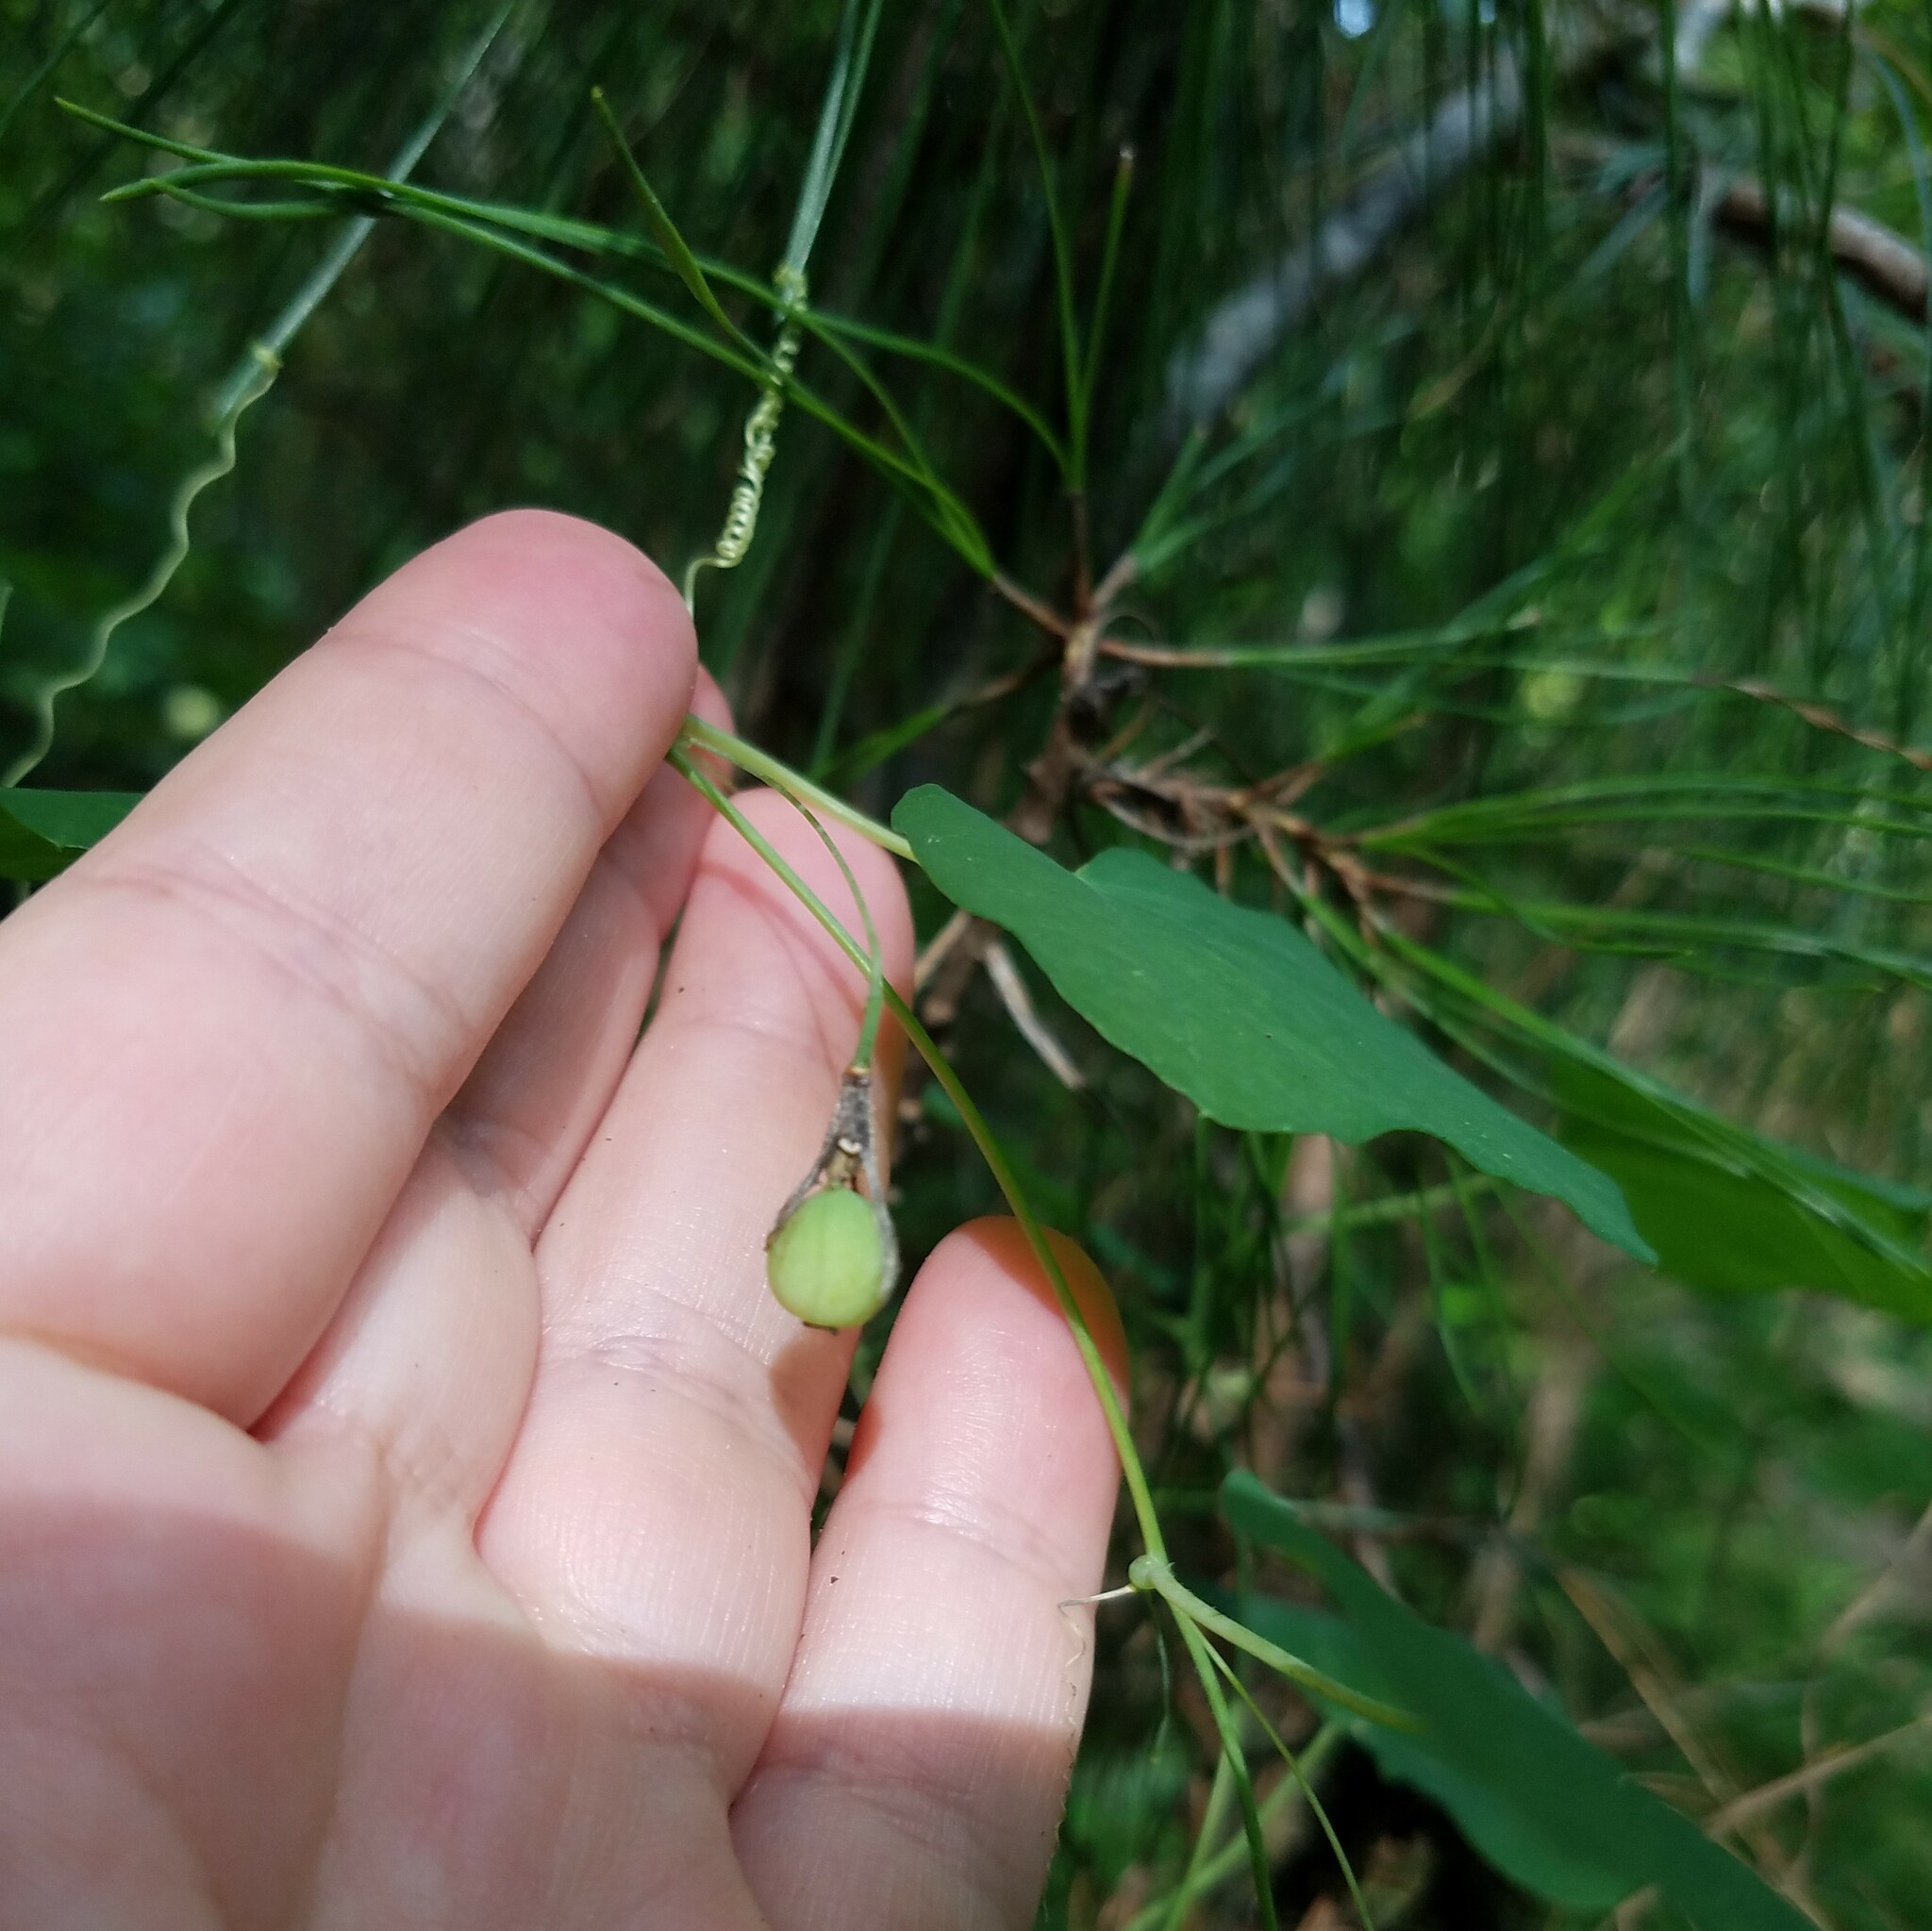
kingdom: Plantae
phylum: Tracheophyta
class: Magnoliopsida
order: Malpighiales
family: Passifloraceae
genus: Passiflora
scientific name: Passiflora lutea
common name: Yellow passionflower
